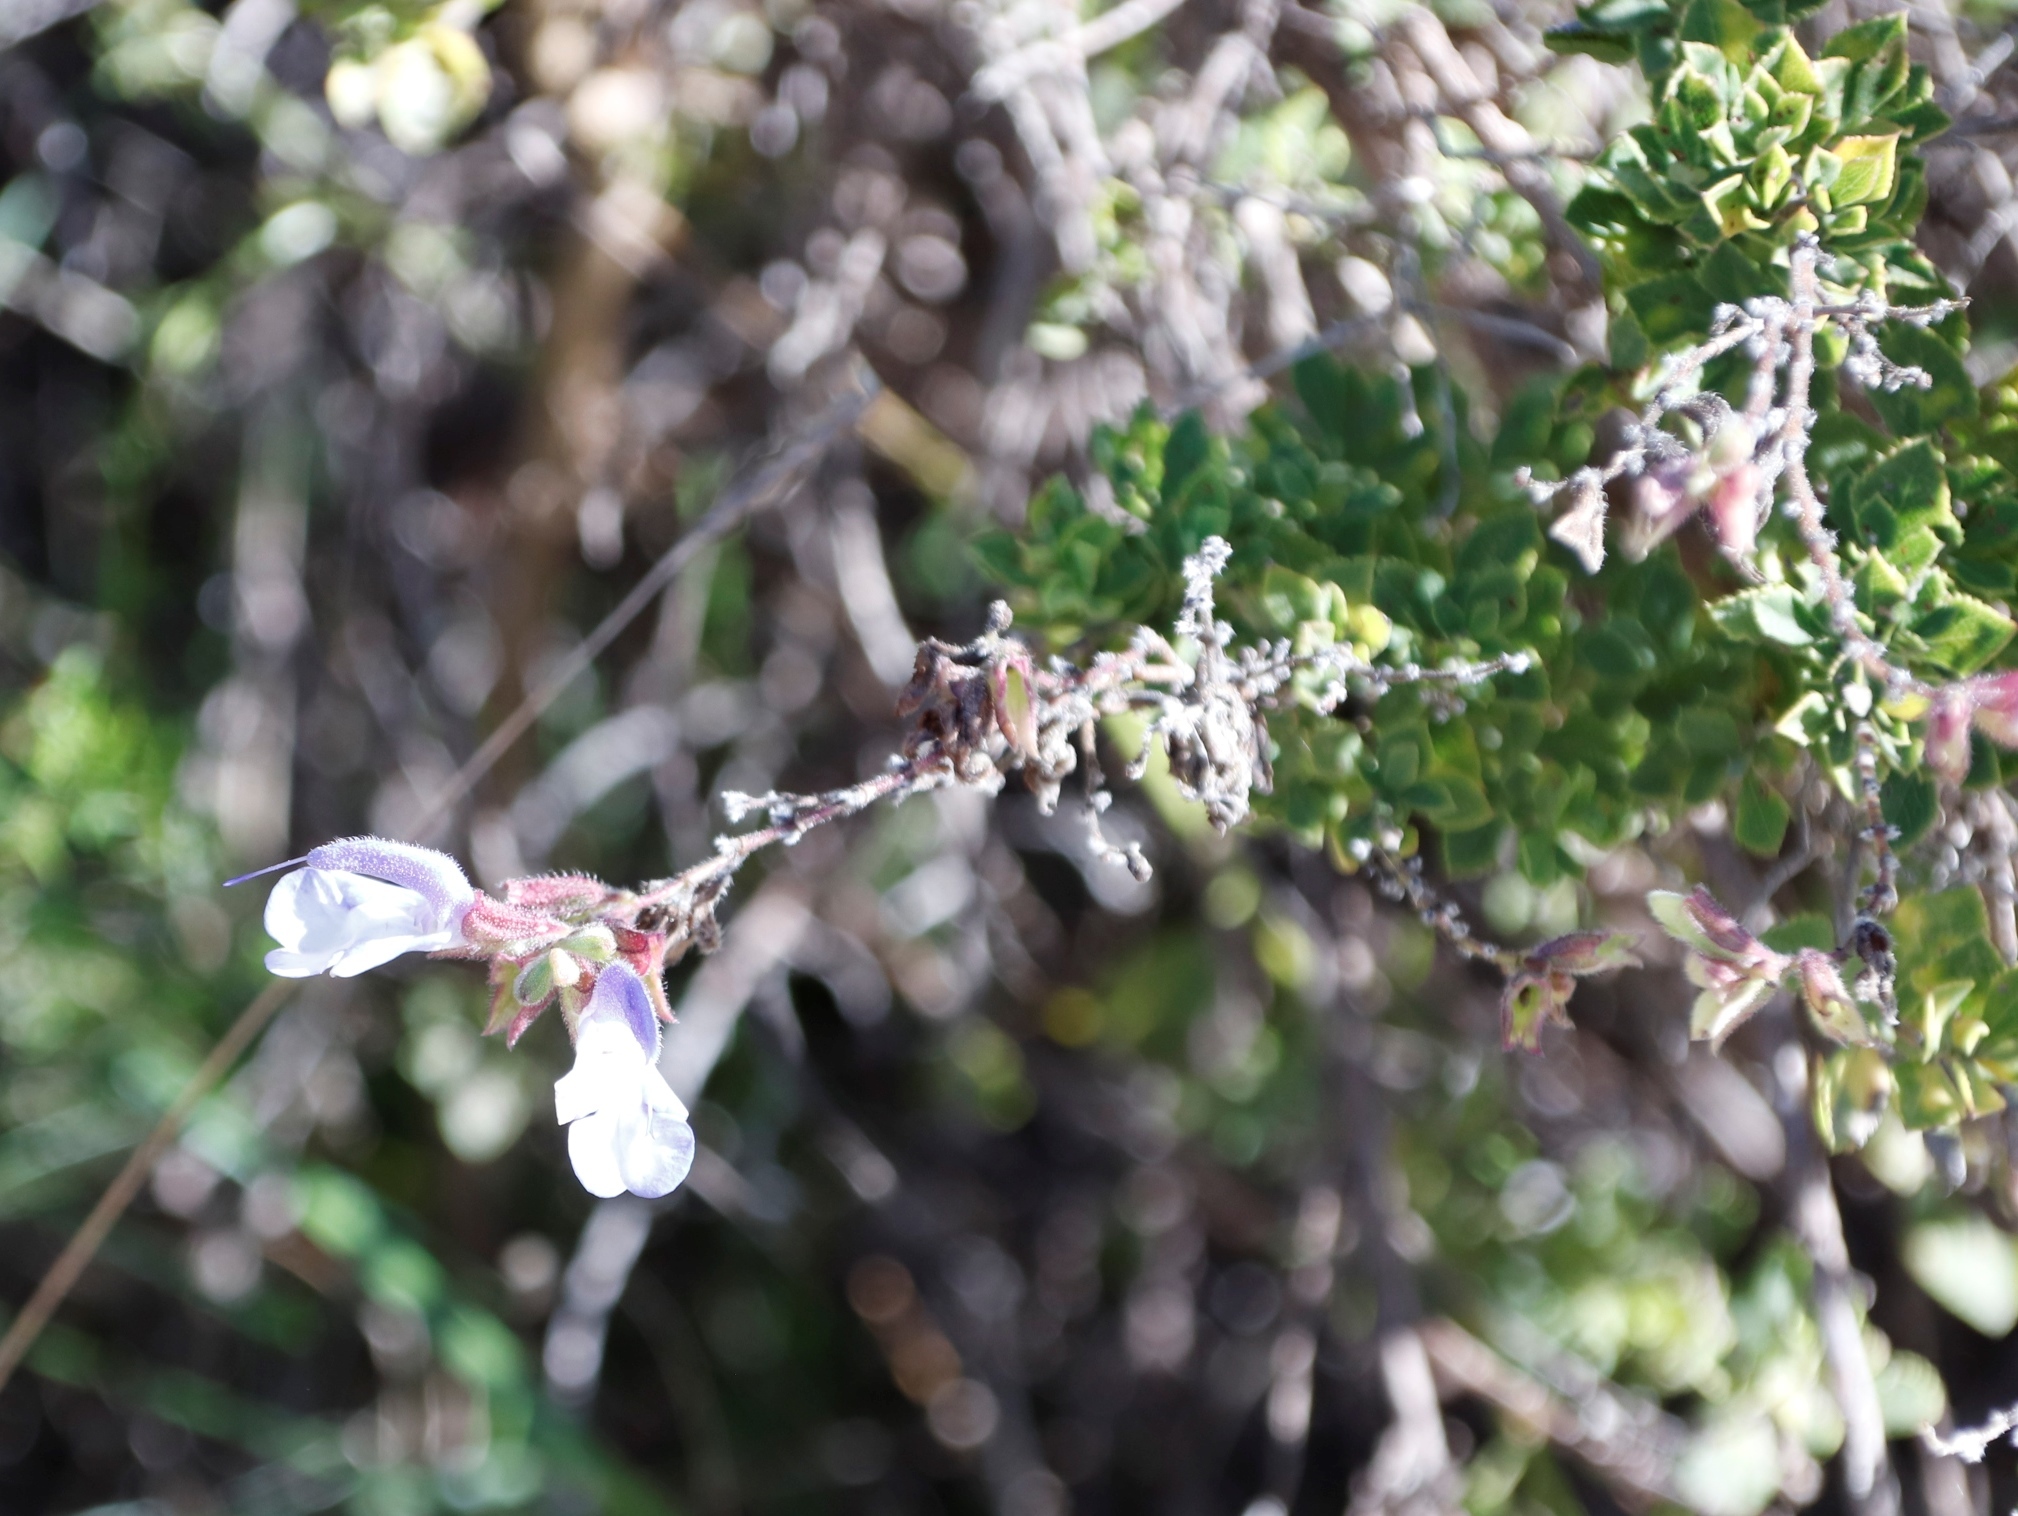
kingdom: Plantae
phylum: Tracheophyta
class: Magnoliopsida
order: Lamiales
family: Lamiaceae
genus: Salvia
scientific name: Salvia chamelaeagnea
